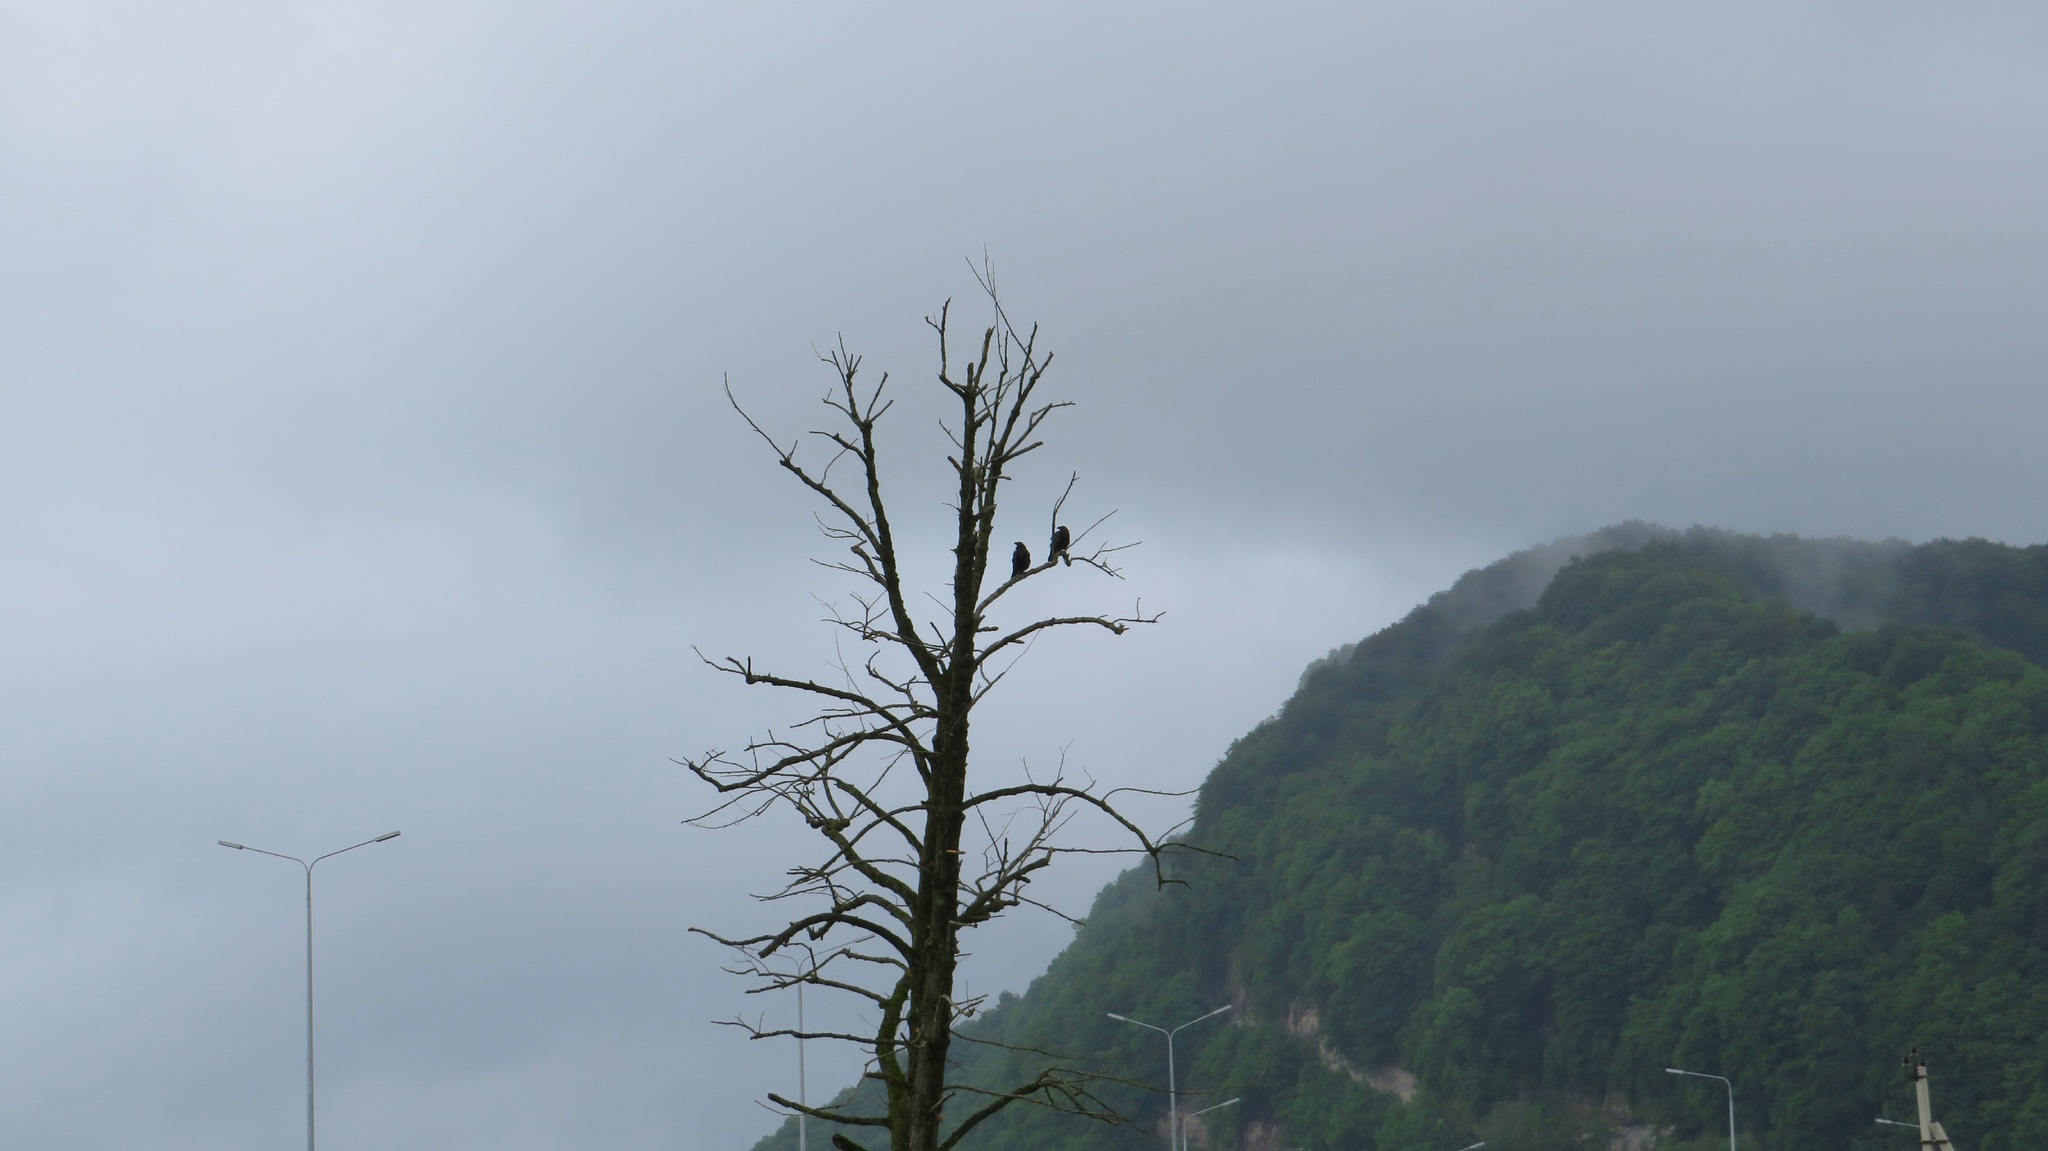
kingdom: Animalia
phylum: Chordata
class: Aves
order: Passeriformes
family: Corvidae
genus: Corvus
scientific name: Corvus corax
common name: Common raven
